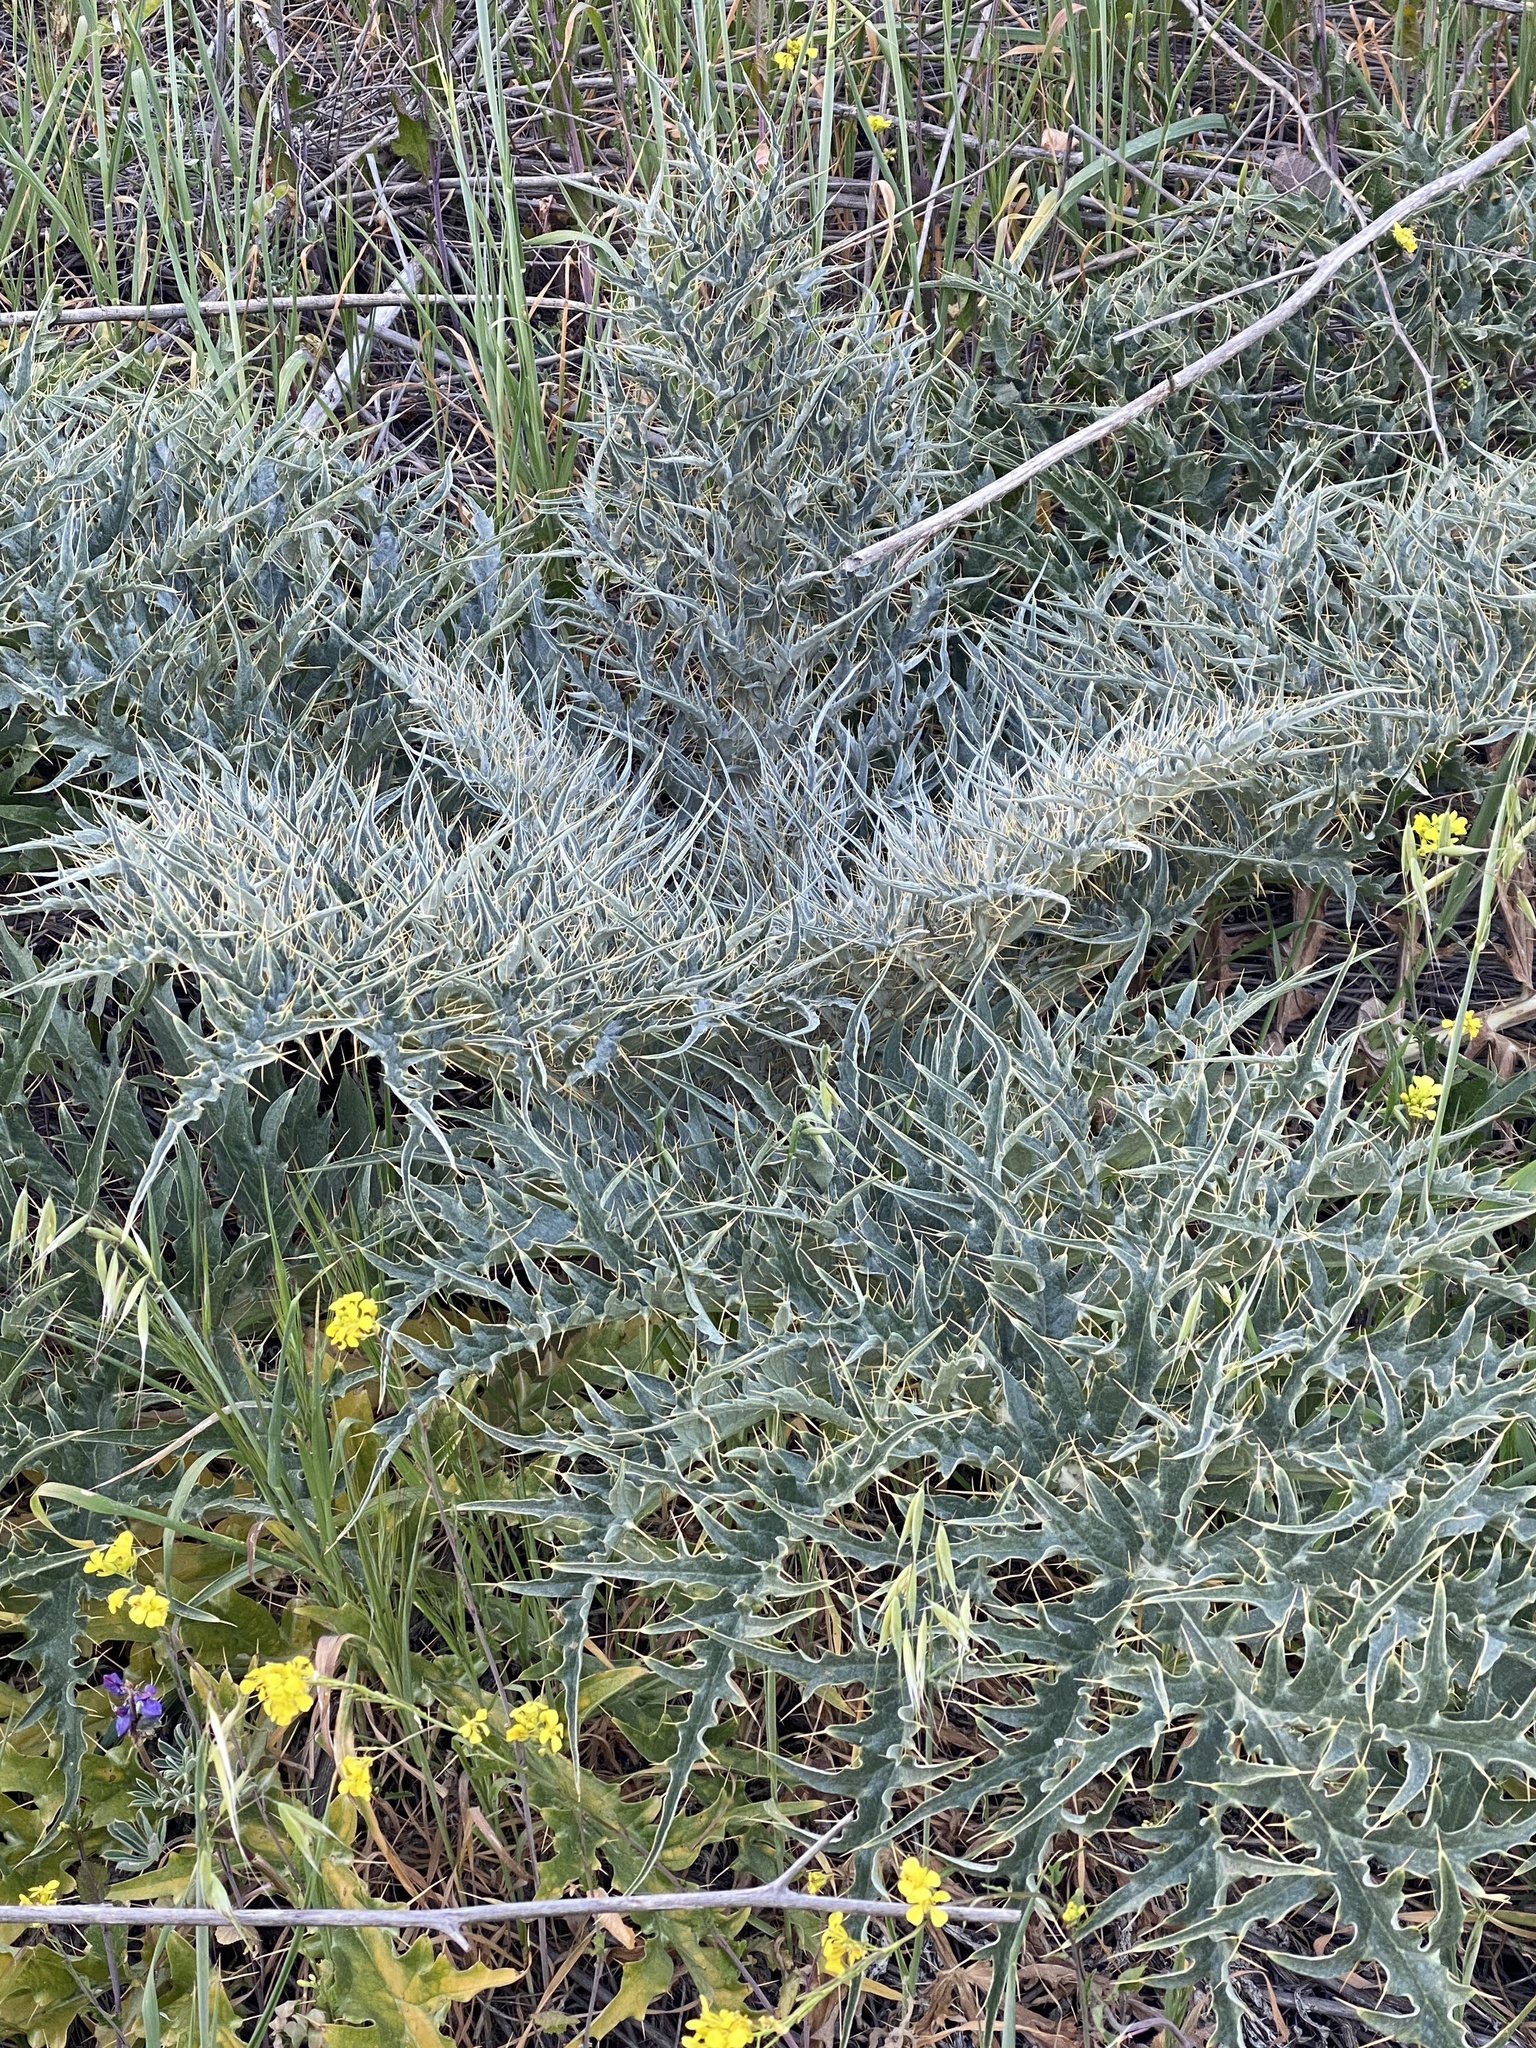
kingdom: Plantae
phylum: Tracheophyta
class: Magnoliopsida
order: Asterales
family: Asteraceae
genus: Cynara
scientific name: Cynara cardunculus
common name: Globe artichoke
